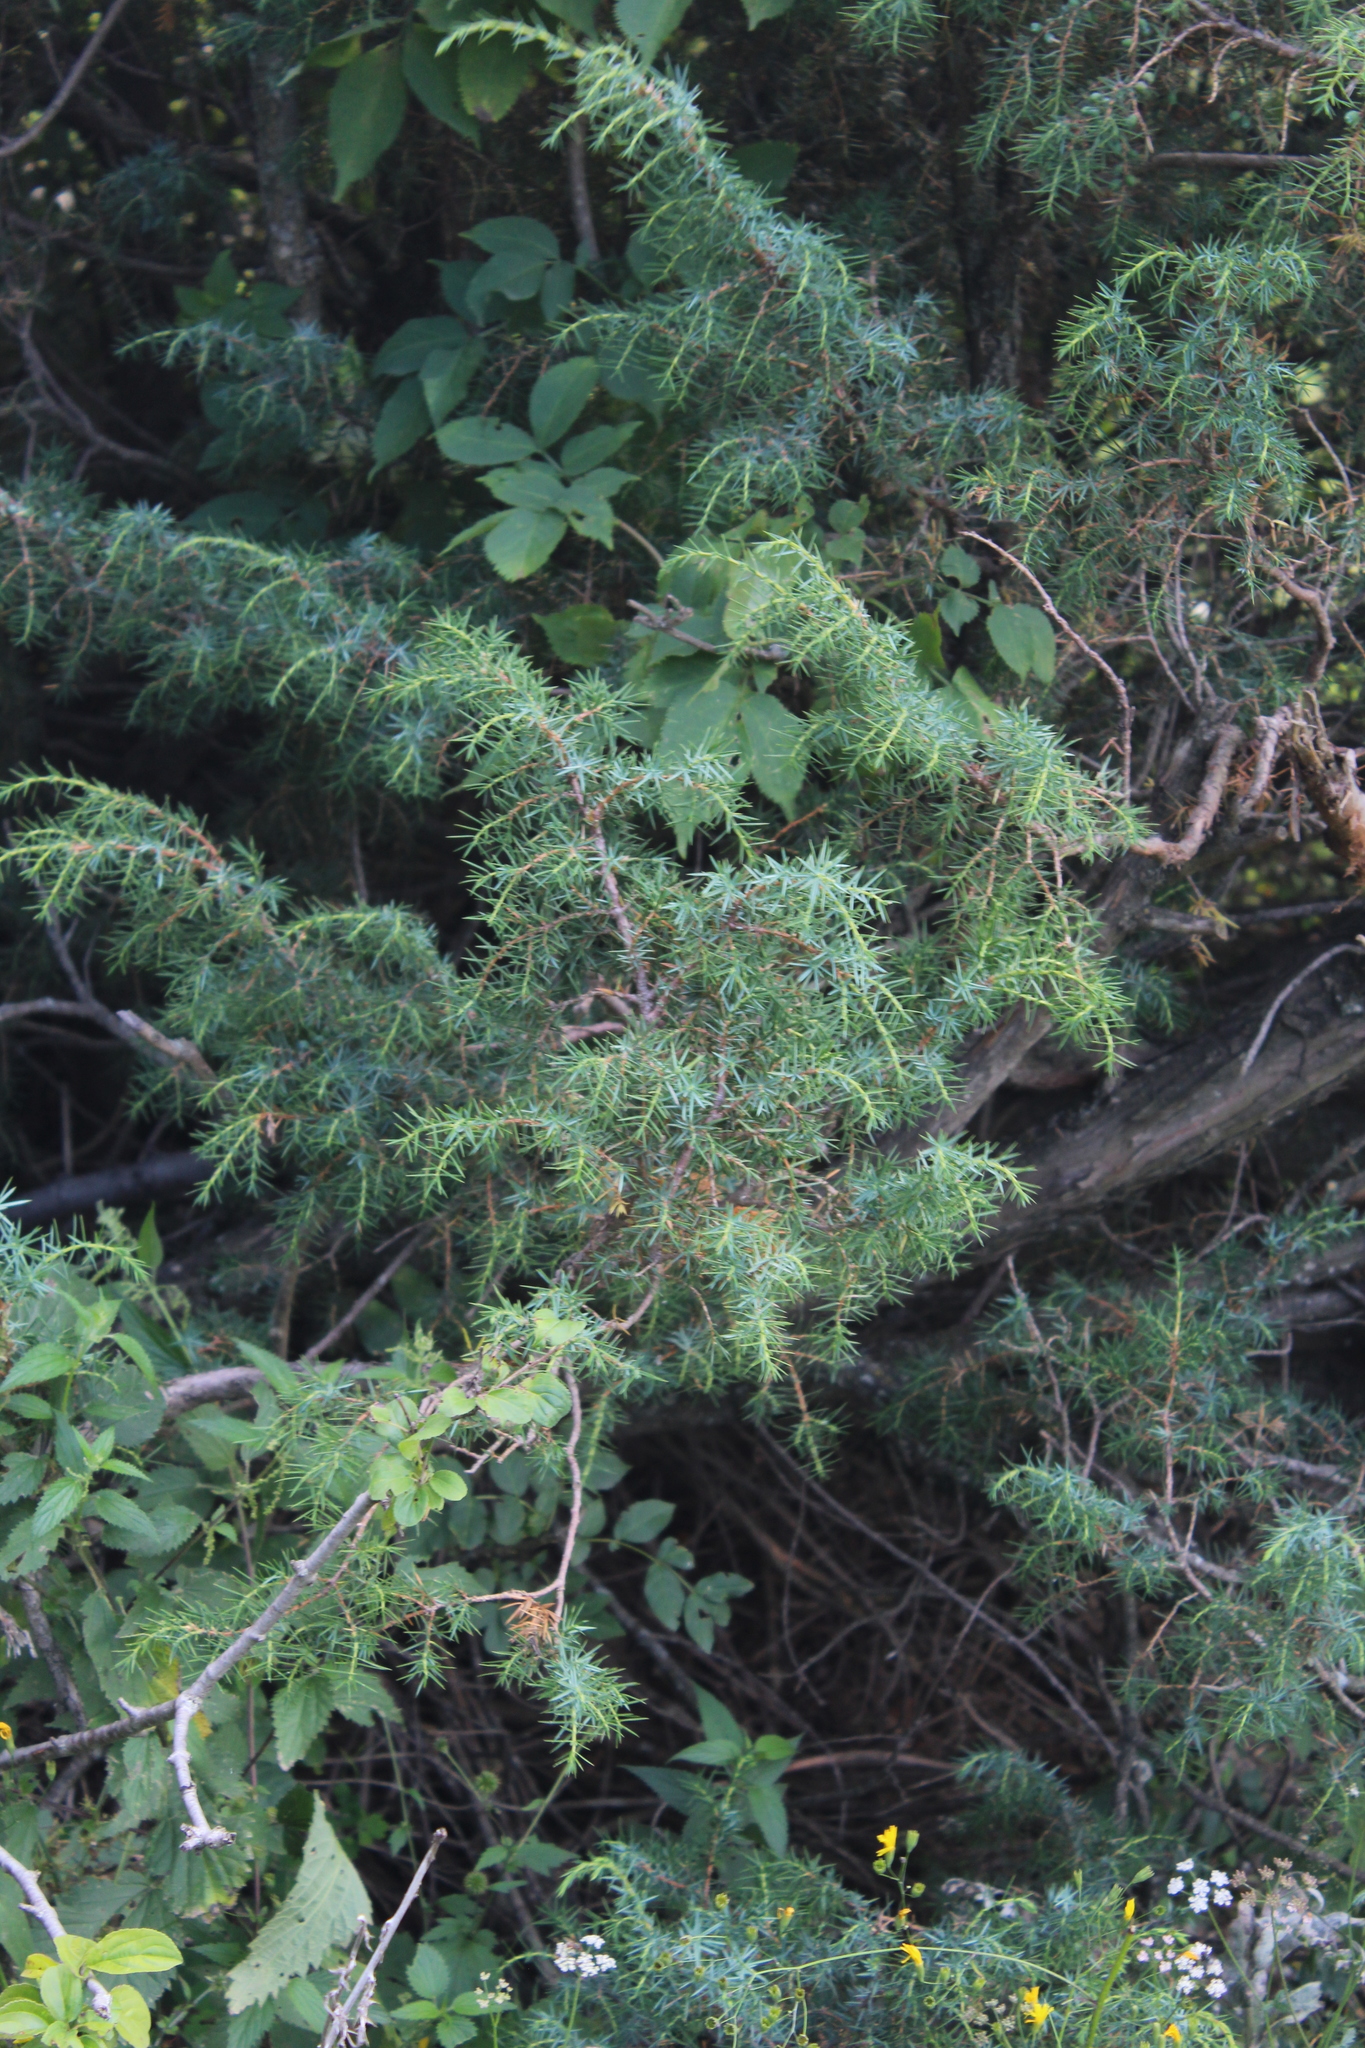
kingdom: Plantae
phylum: Tracheophyta
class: Pinopsida
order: Pinales
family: Cupressaceae
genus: Juniperus
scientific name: Juniperus communis
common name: Common juniper
